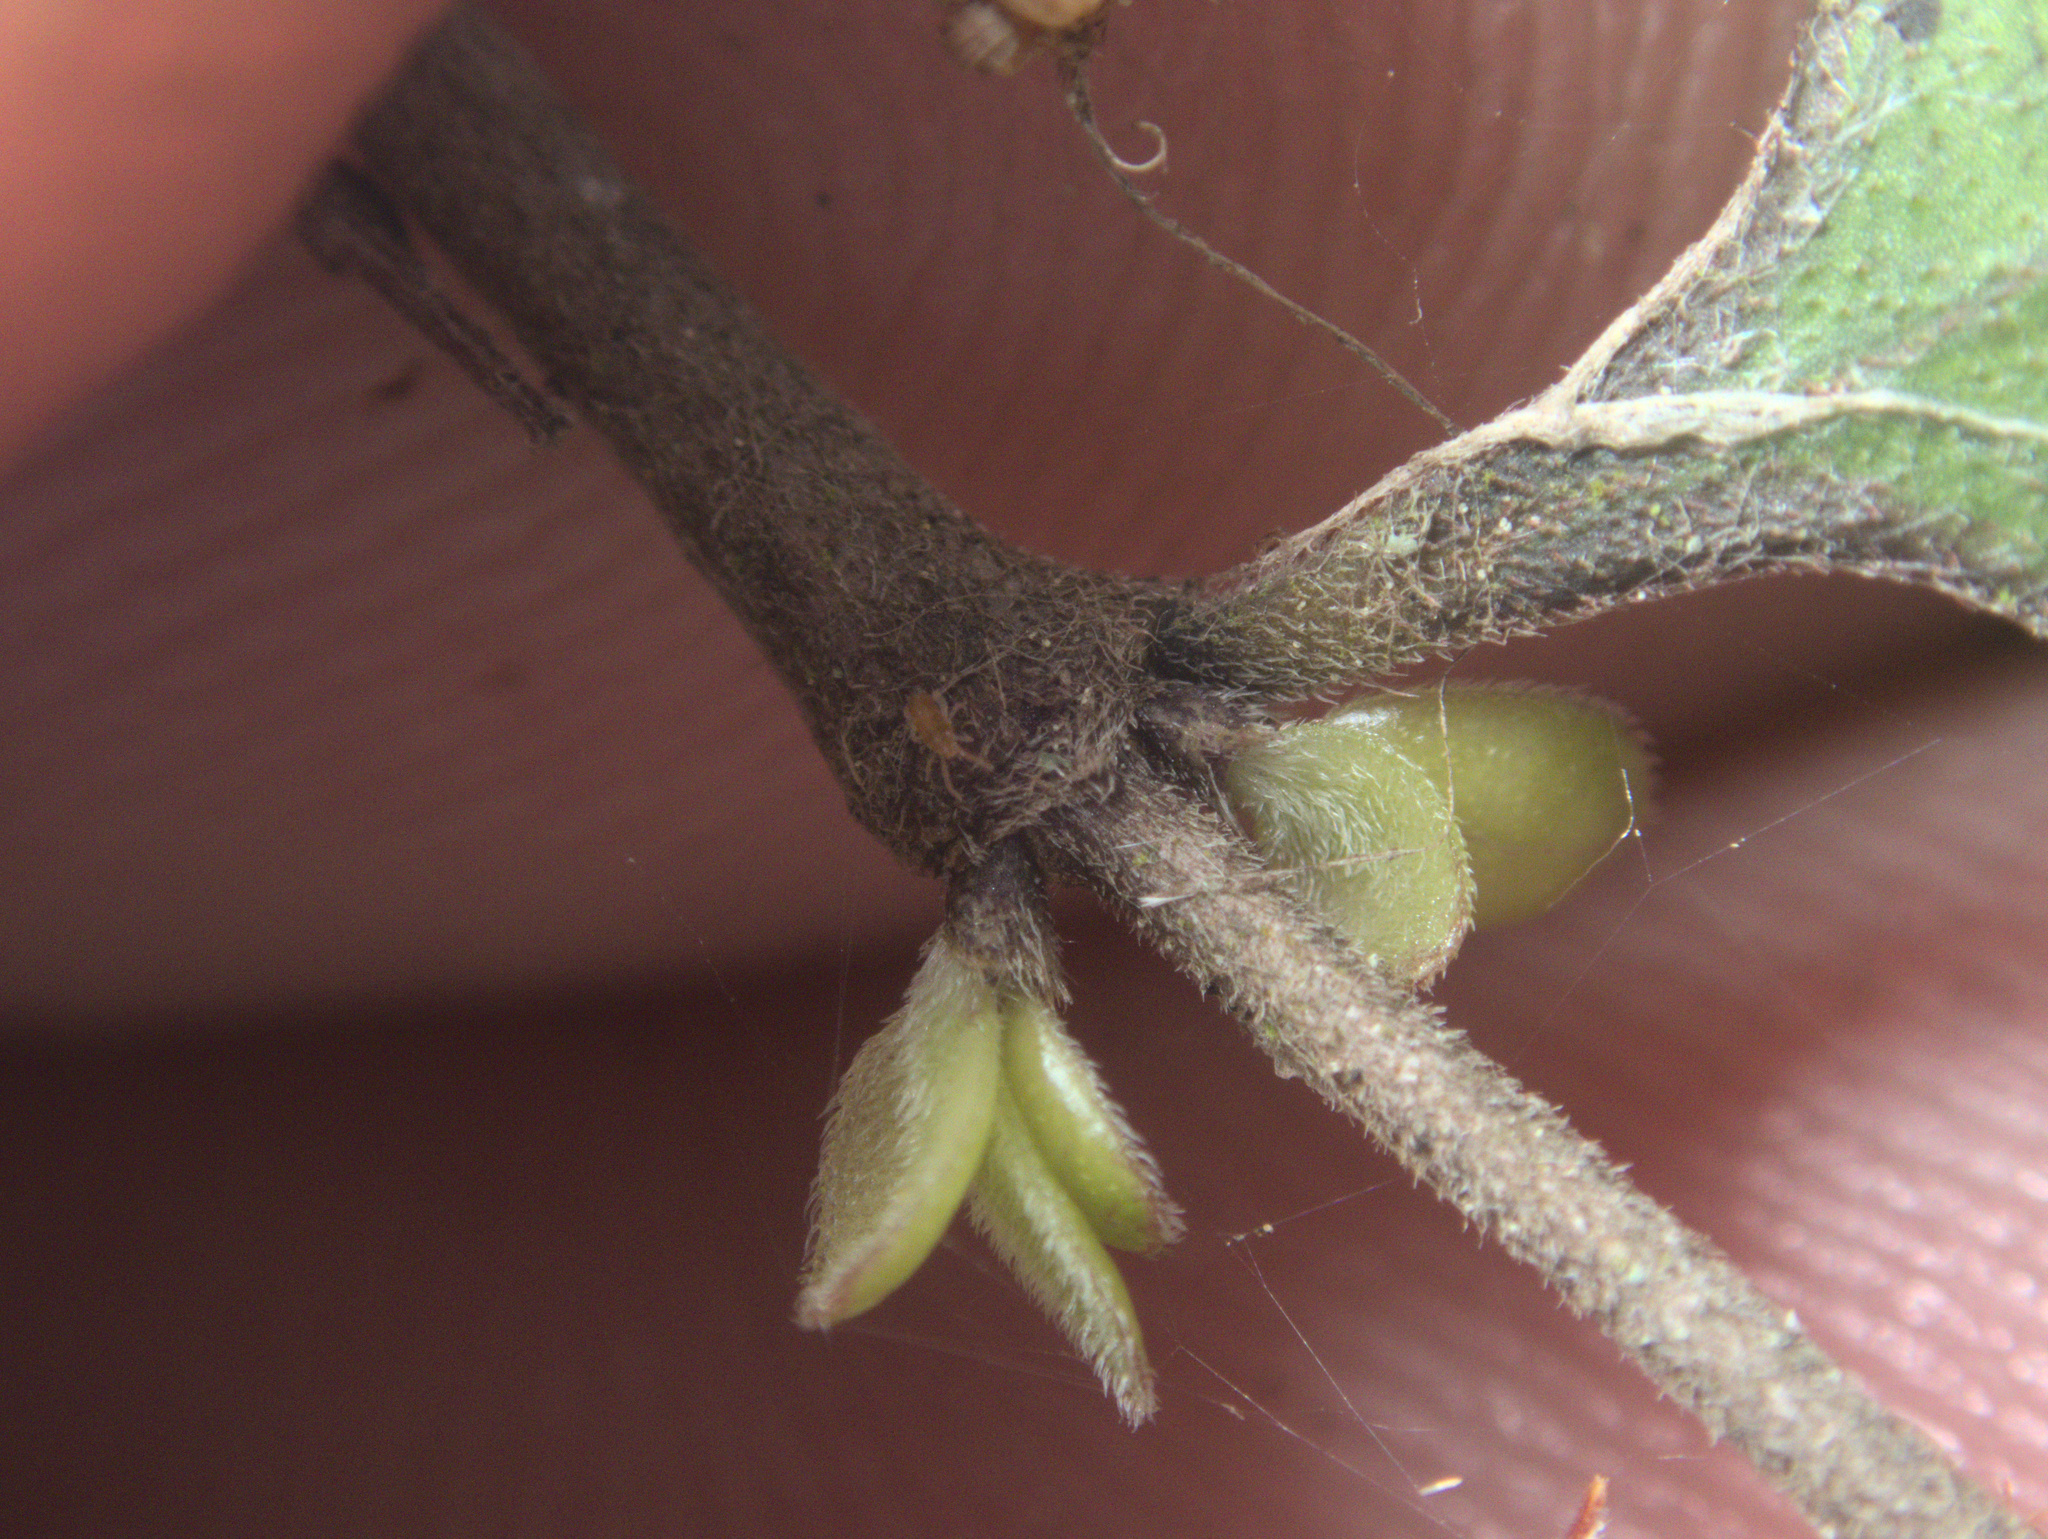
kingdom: Plantae
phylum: Tracheophyta
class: Magnoliopsida
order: Gentianales
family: Rubiaceae
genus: Coprosma
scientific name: Coprosma rubra
